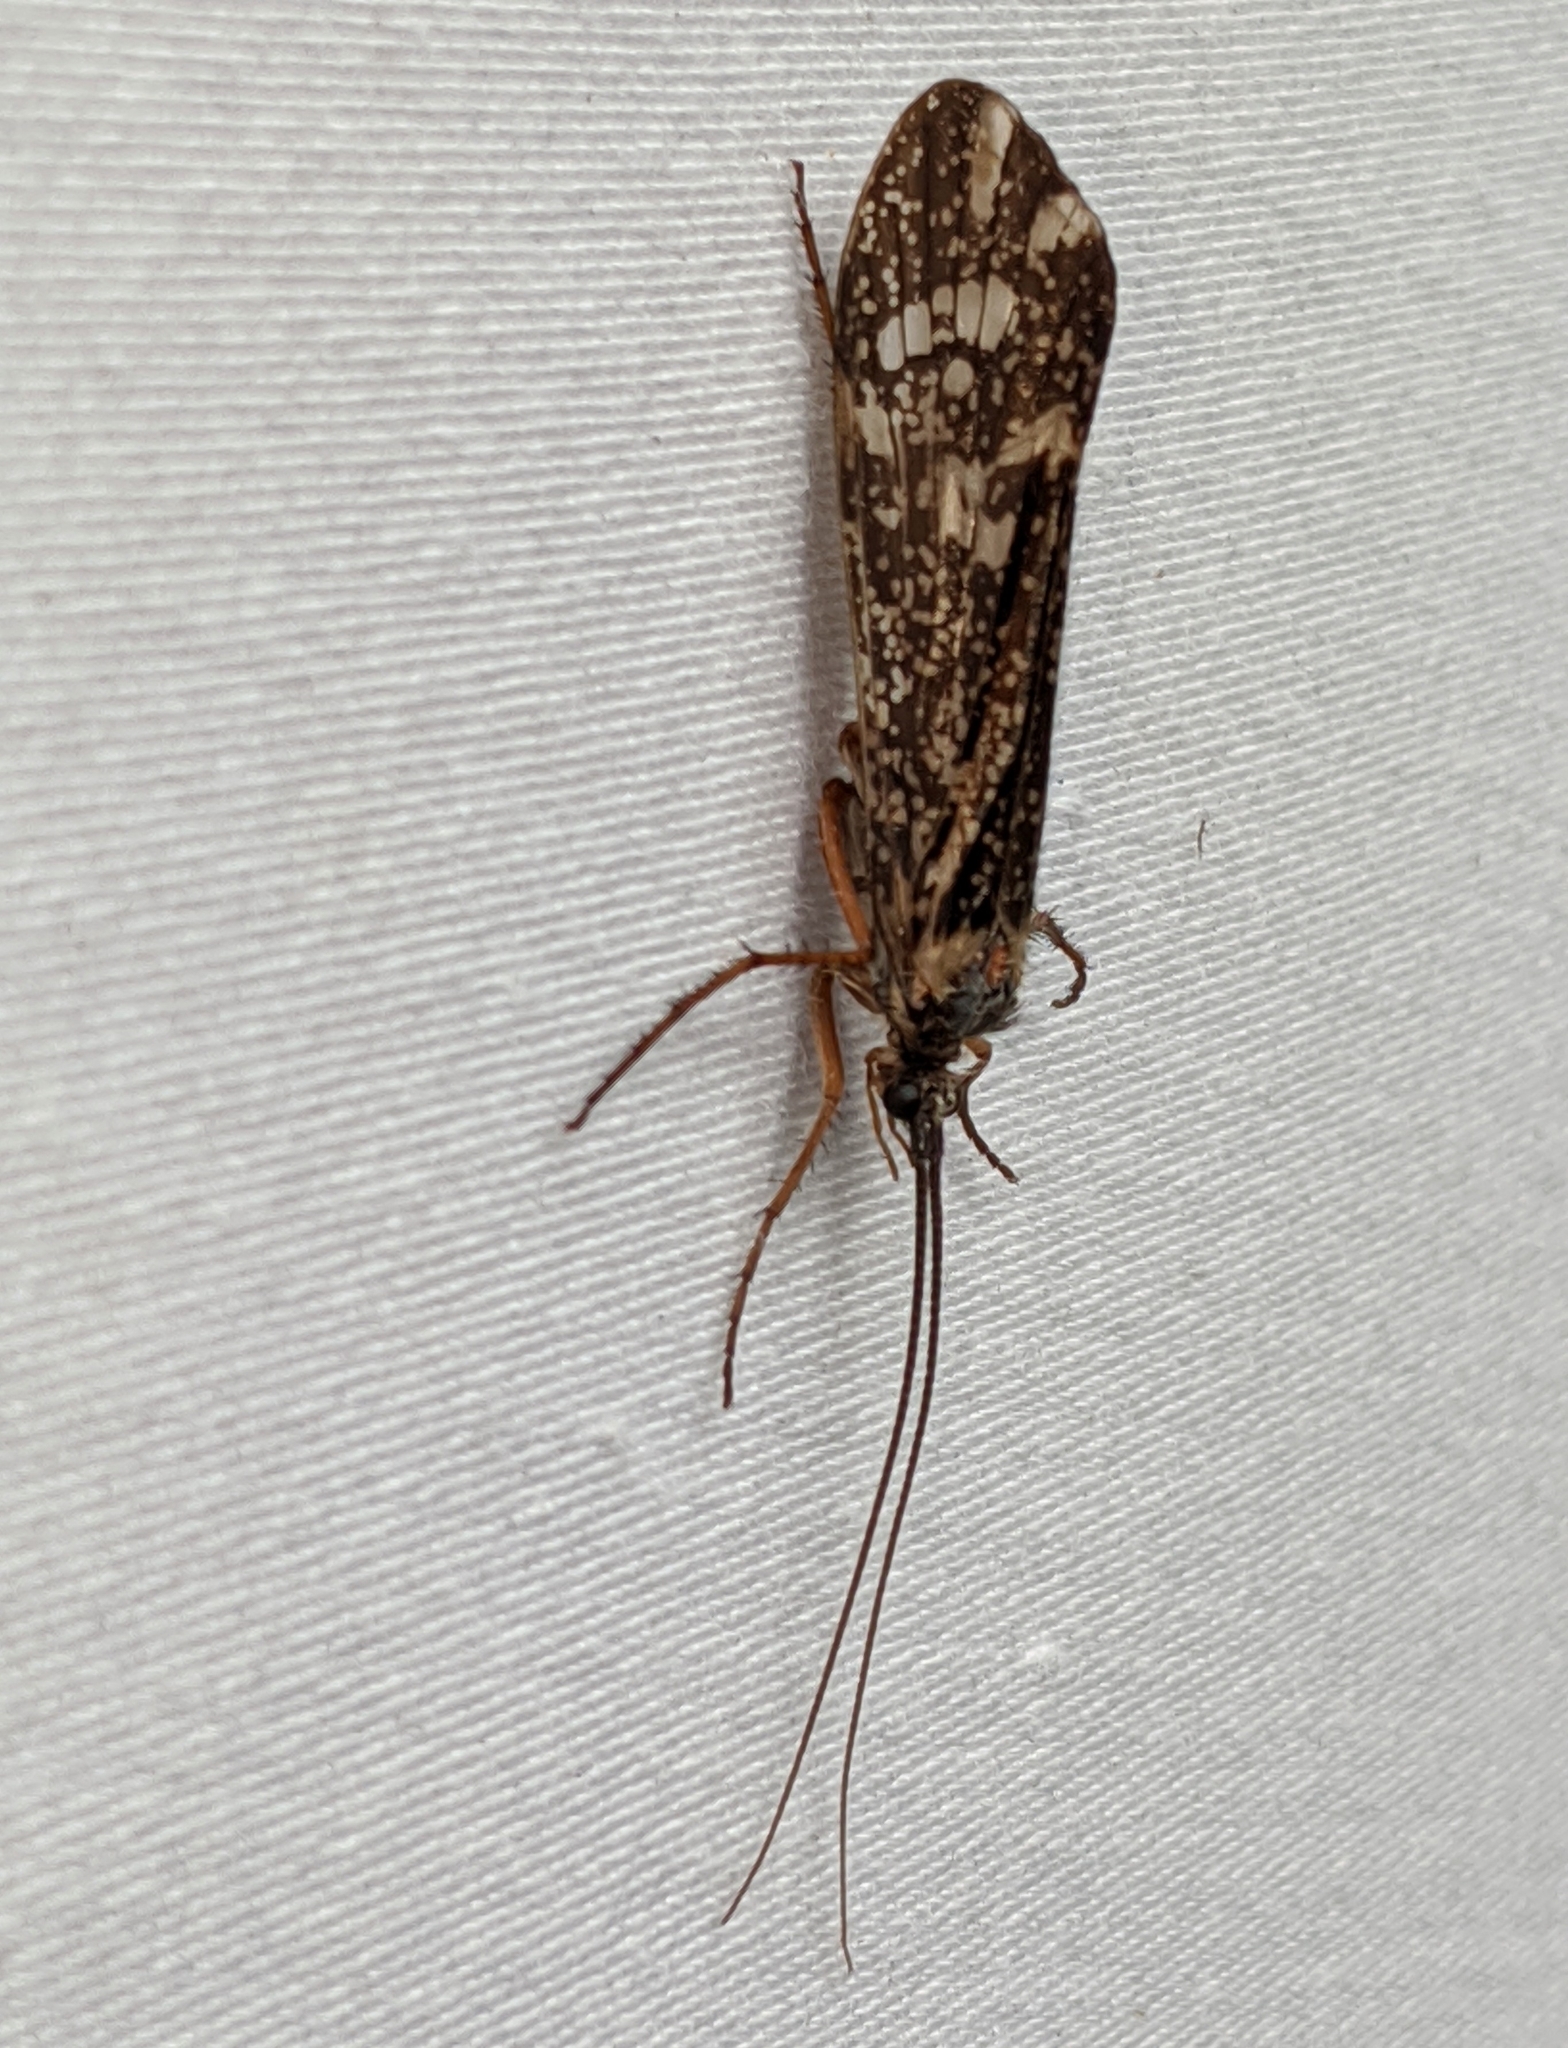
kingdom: Animalia
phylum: Arthropoda
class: Insecta
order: Trichoptera
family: Limnephilidae
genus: Clistoronia
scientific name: Clistoronia magnifica
